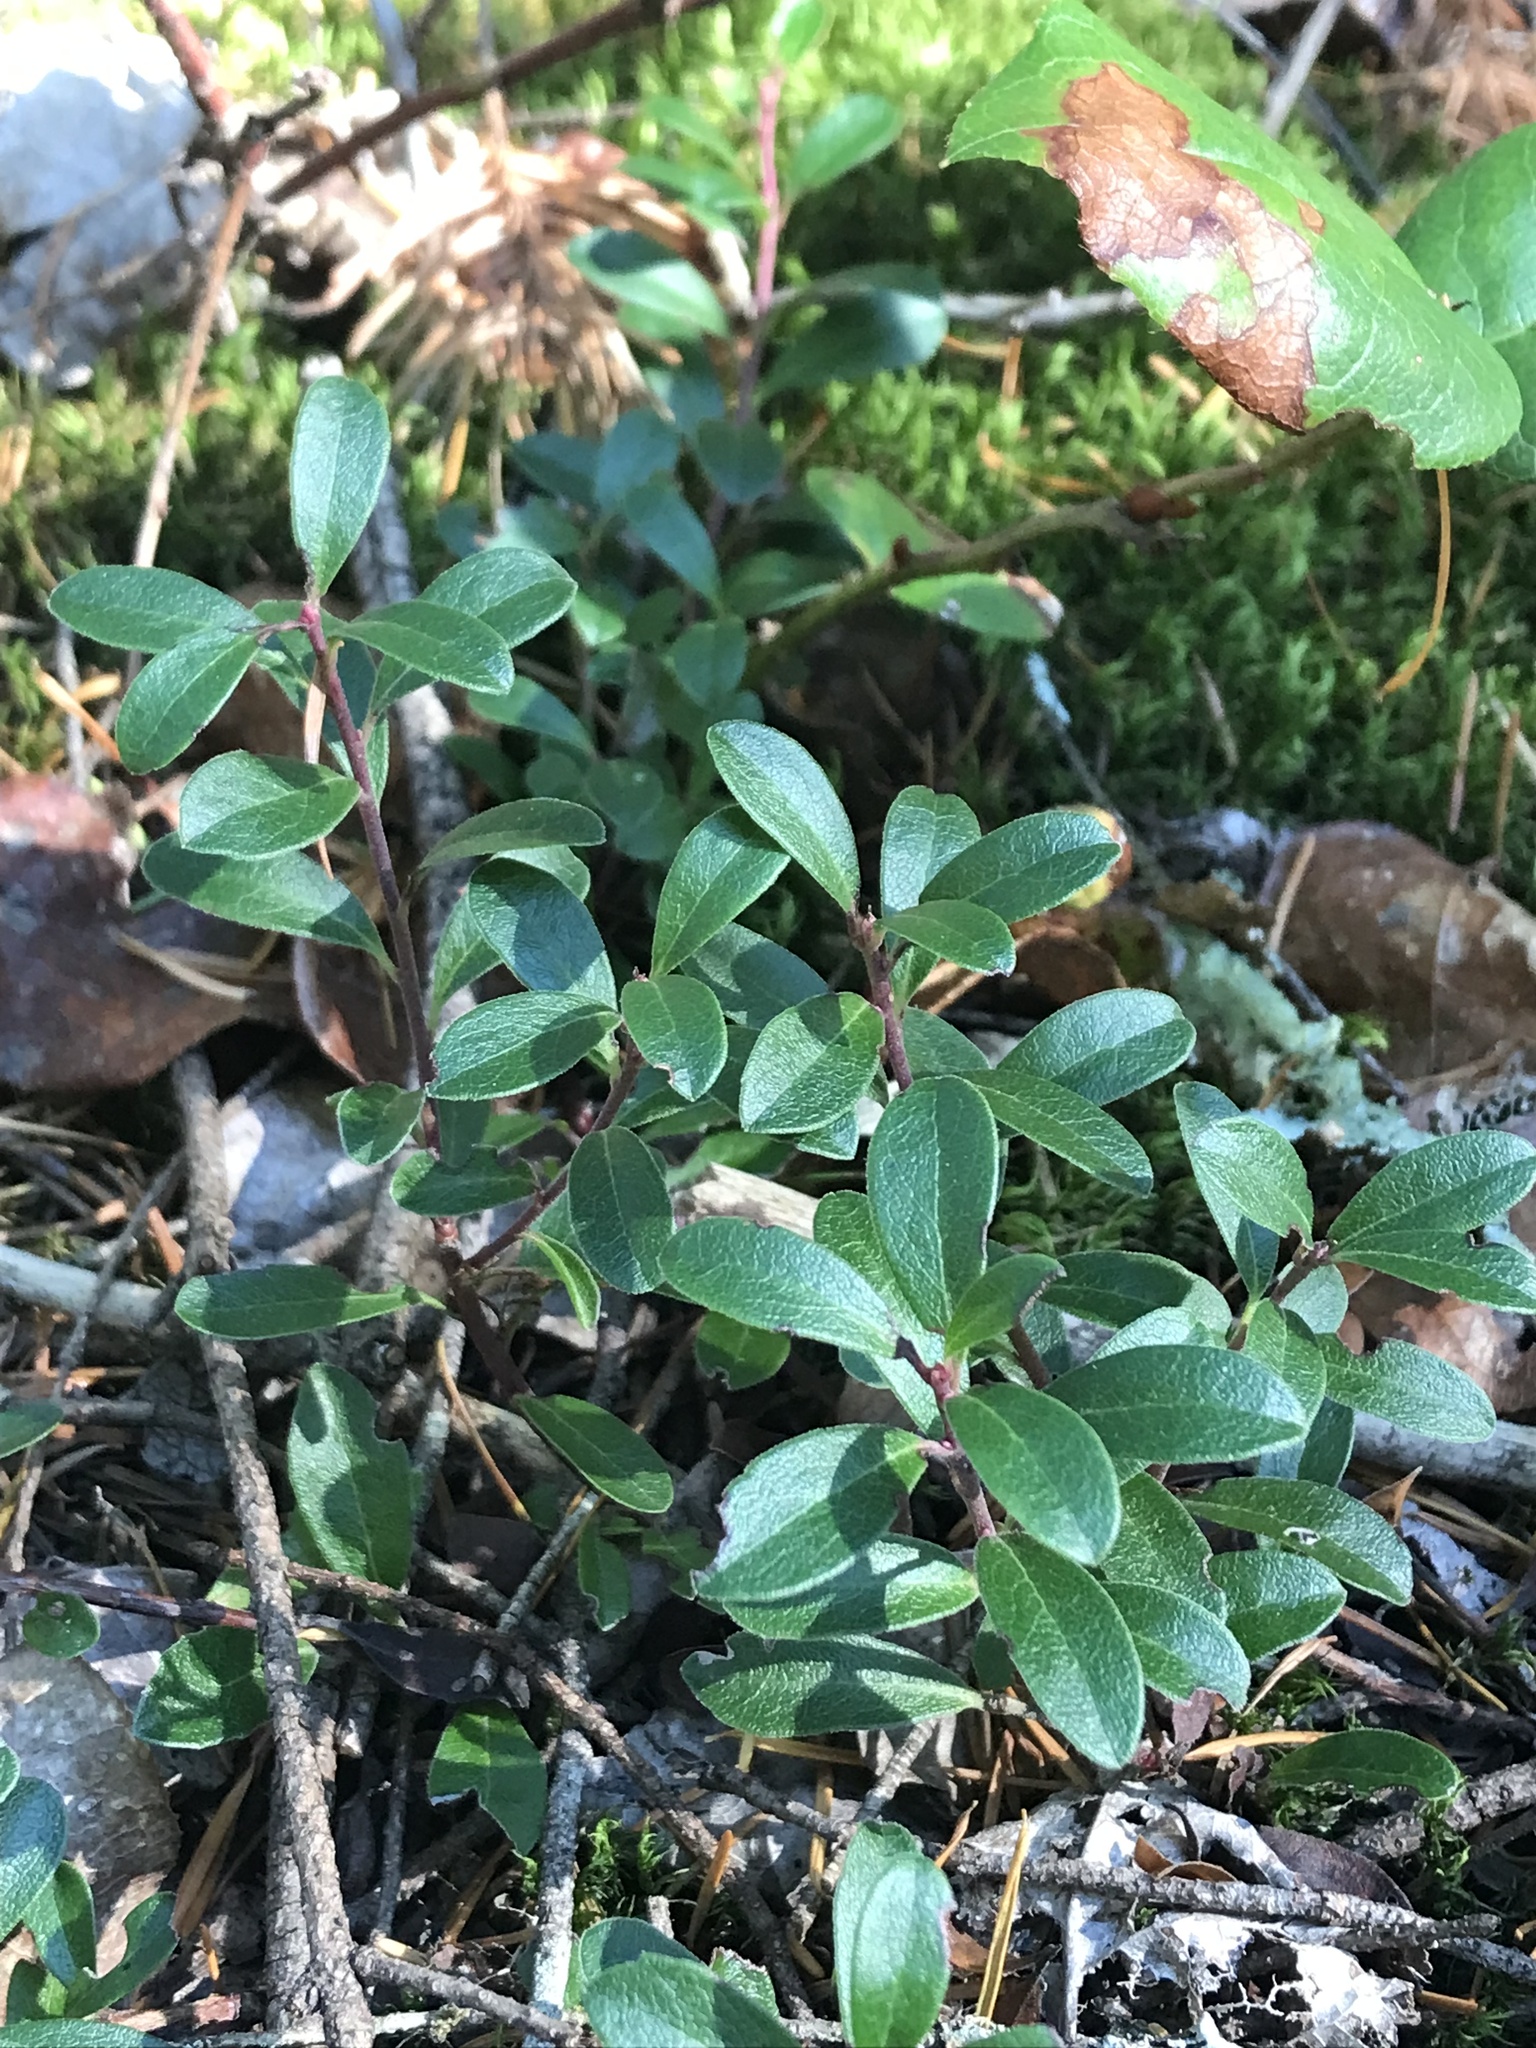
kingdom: Plantae
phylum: Tracheophyta
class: Magnoliopsida
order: Ericales
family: Ericaceae
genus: Arctostaphylos
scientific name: Arctostaphylos uva-ursi
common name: Bearberry
